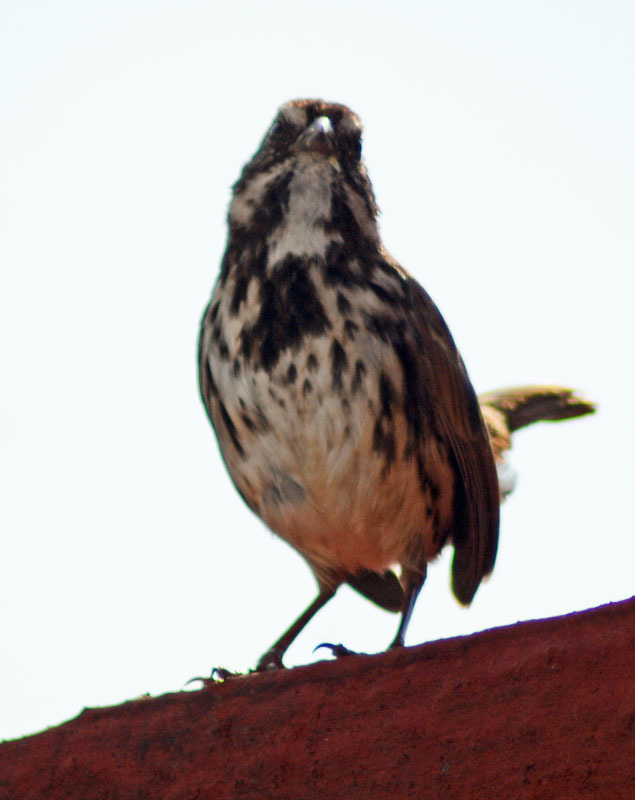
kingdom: Animalia
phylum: Chordata
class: Aves
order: Passeriformes
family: Passerellidae
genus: Melospiza
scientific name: Melospiza melodia
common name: Song sparrow
